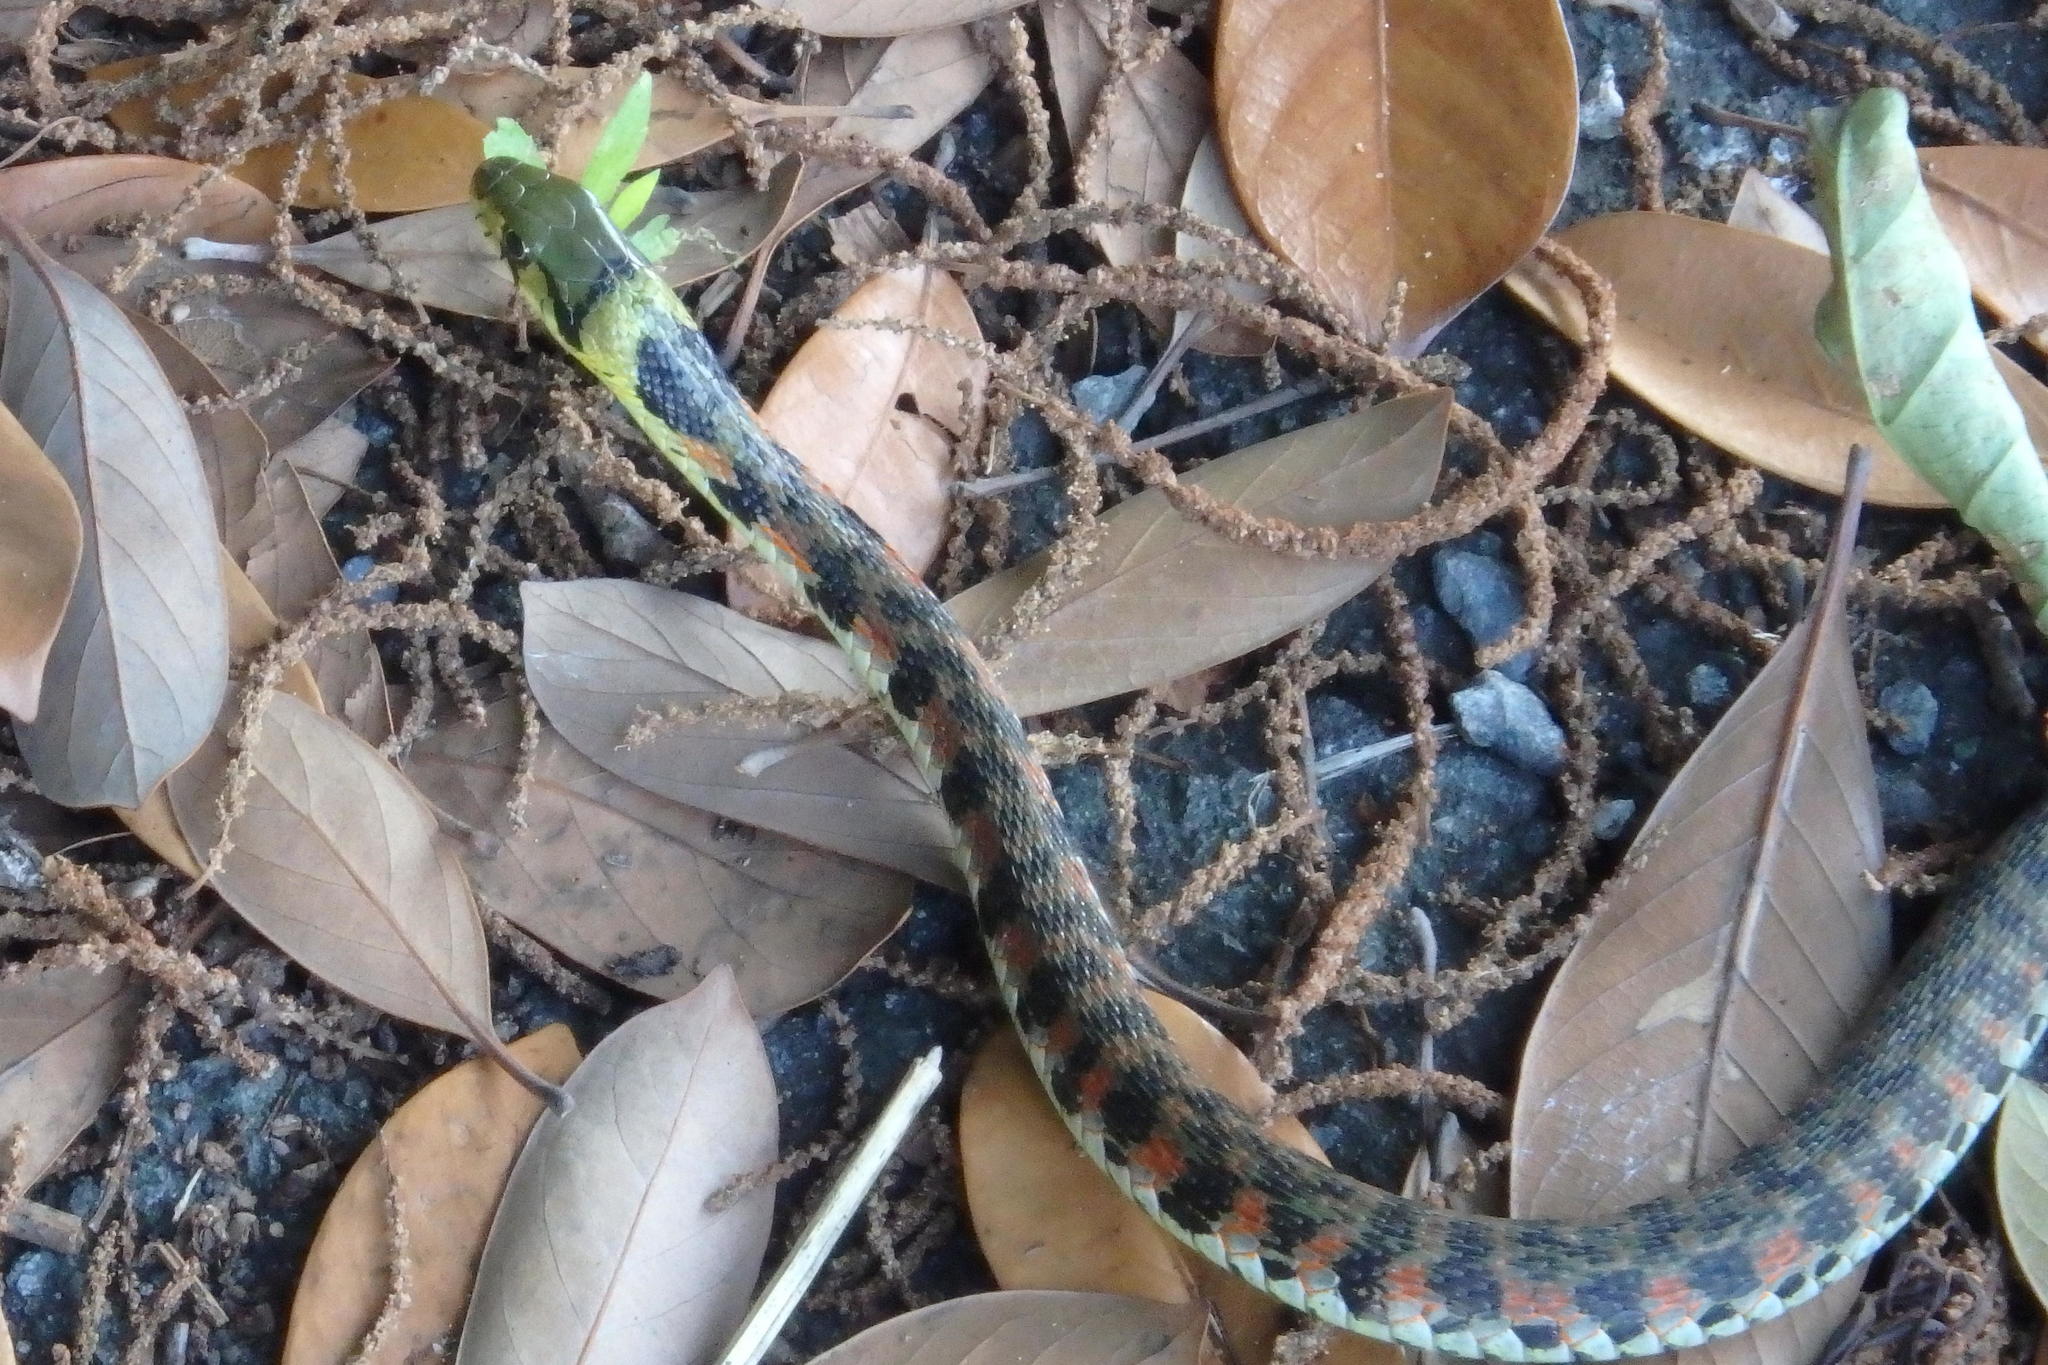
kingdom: Animalia
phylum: Chordata
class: Squamata
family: Colubridae
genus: Rhabdophis
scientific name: Rhabdophis tigrinus
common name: Tiger keelback
